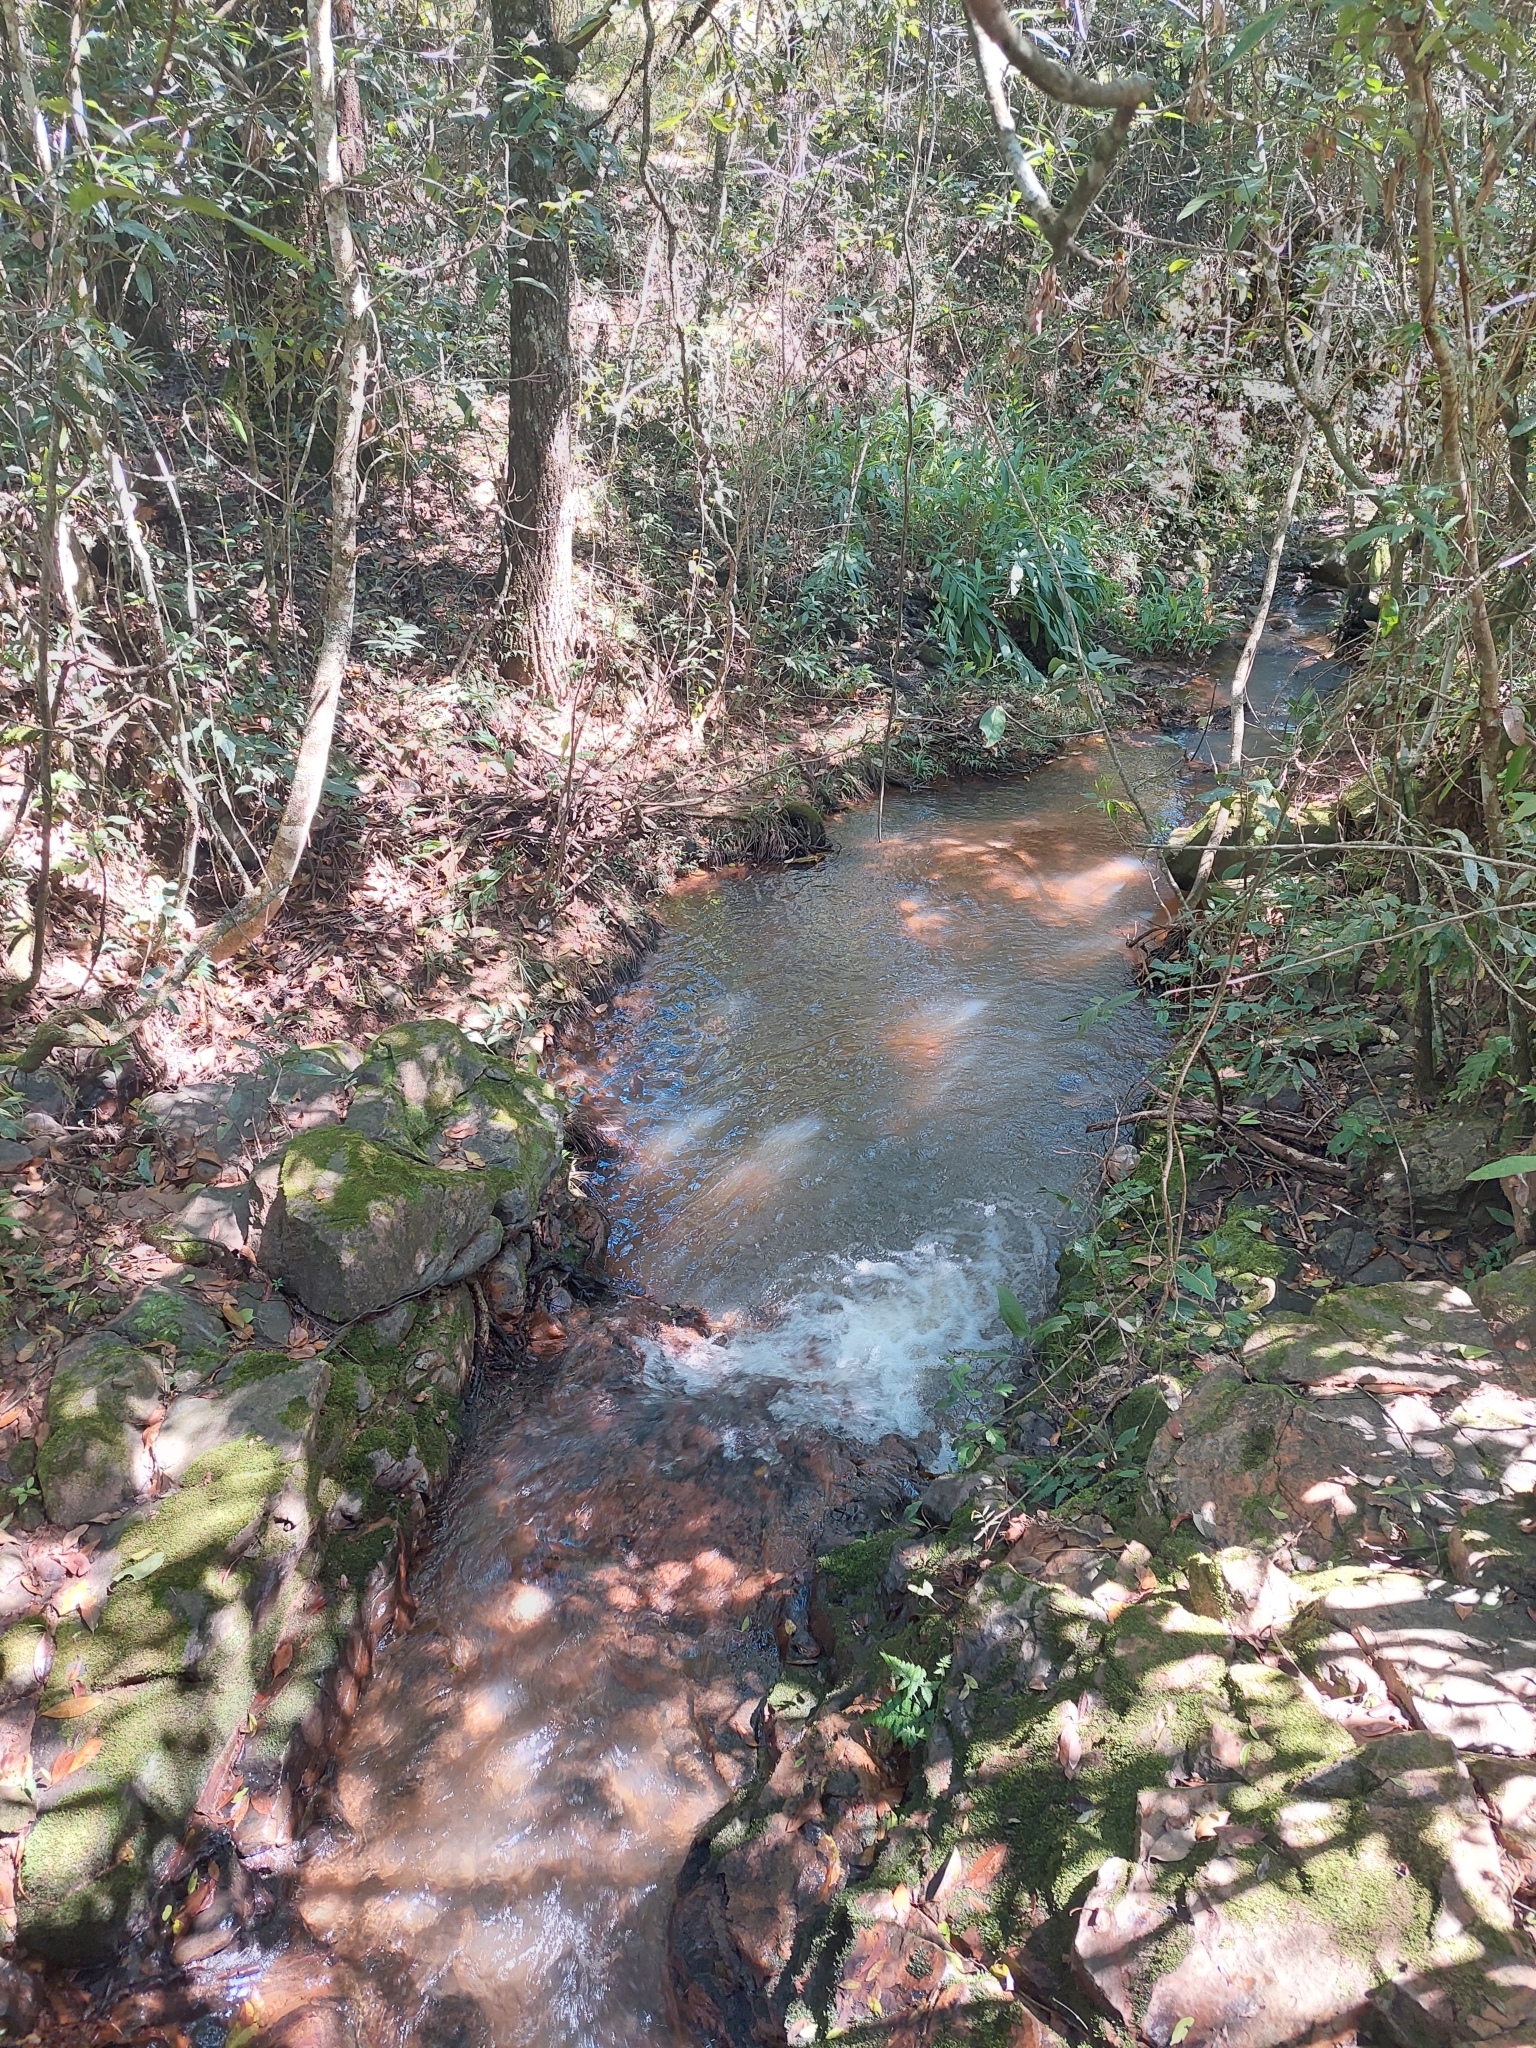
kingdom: Plantae
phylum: Tracheophyta
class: Liliopsida
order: Zingiberales
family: Zingiberaceae
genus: Hedychium
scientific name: Hedychium coronarium
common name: White garland-lily
